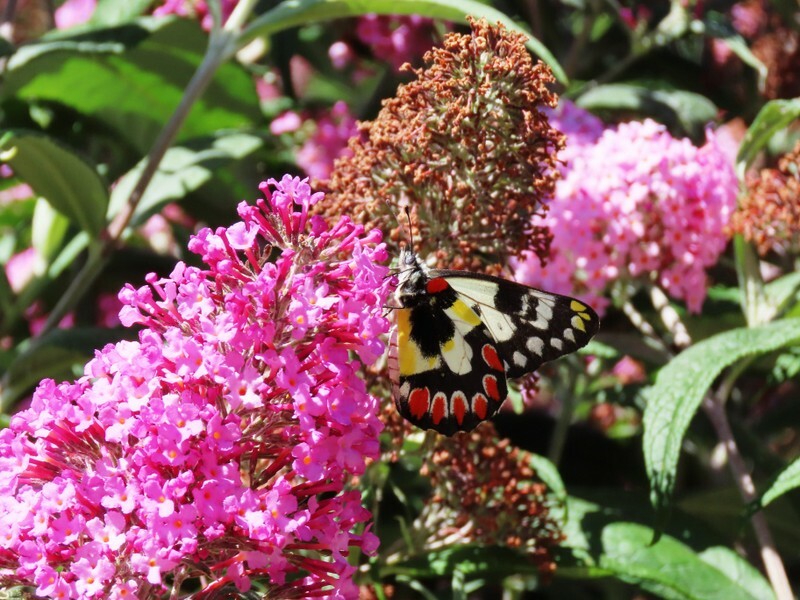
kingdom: Animalia
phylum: Arthropoda
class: Insecta
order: Lepidoptera
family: Pieridae
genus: Delias
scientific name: Delias aganippe
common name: Red-spotted jezebel
